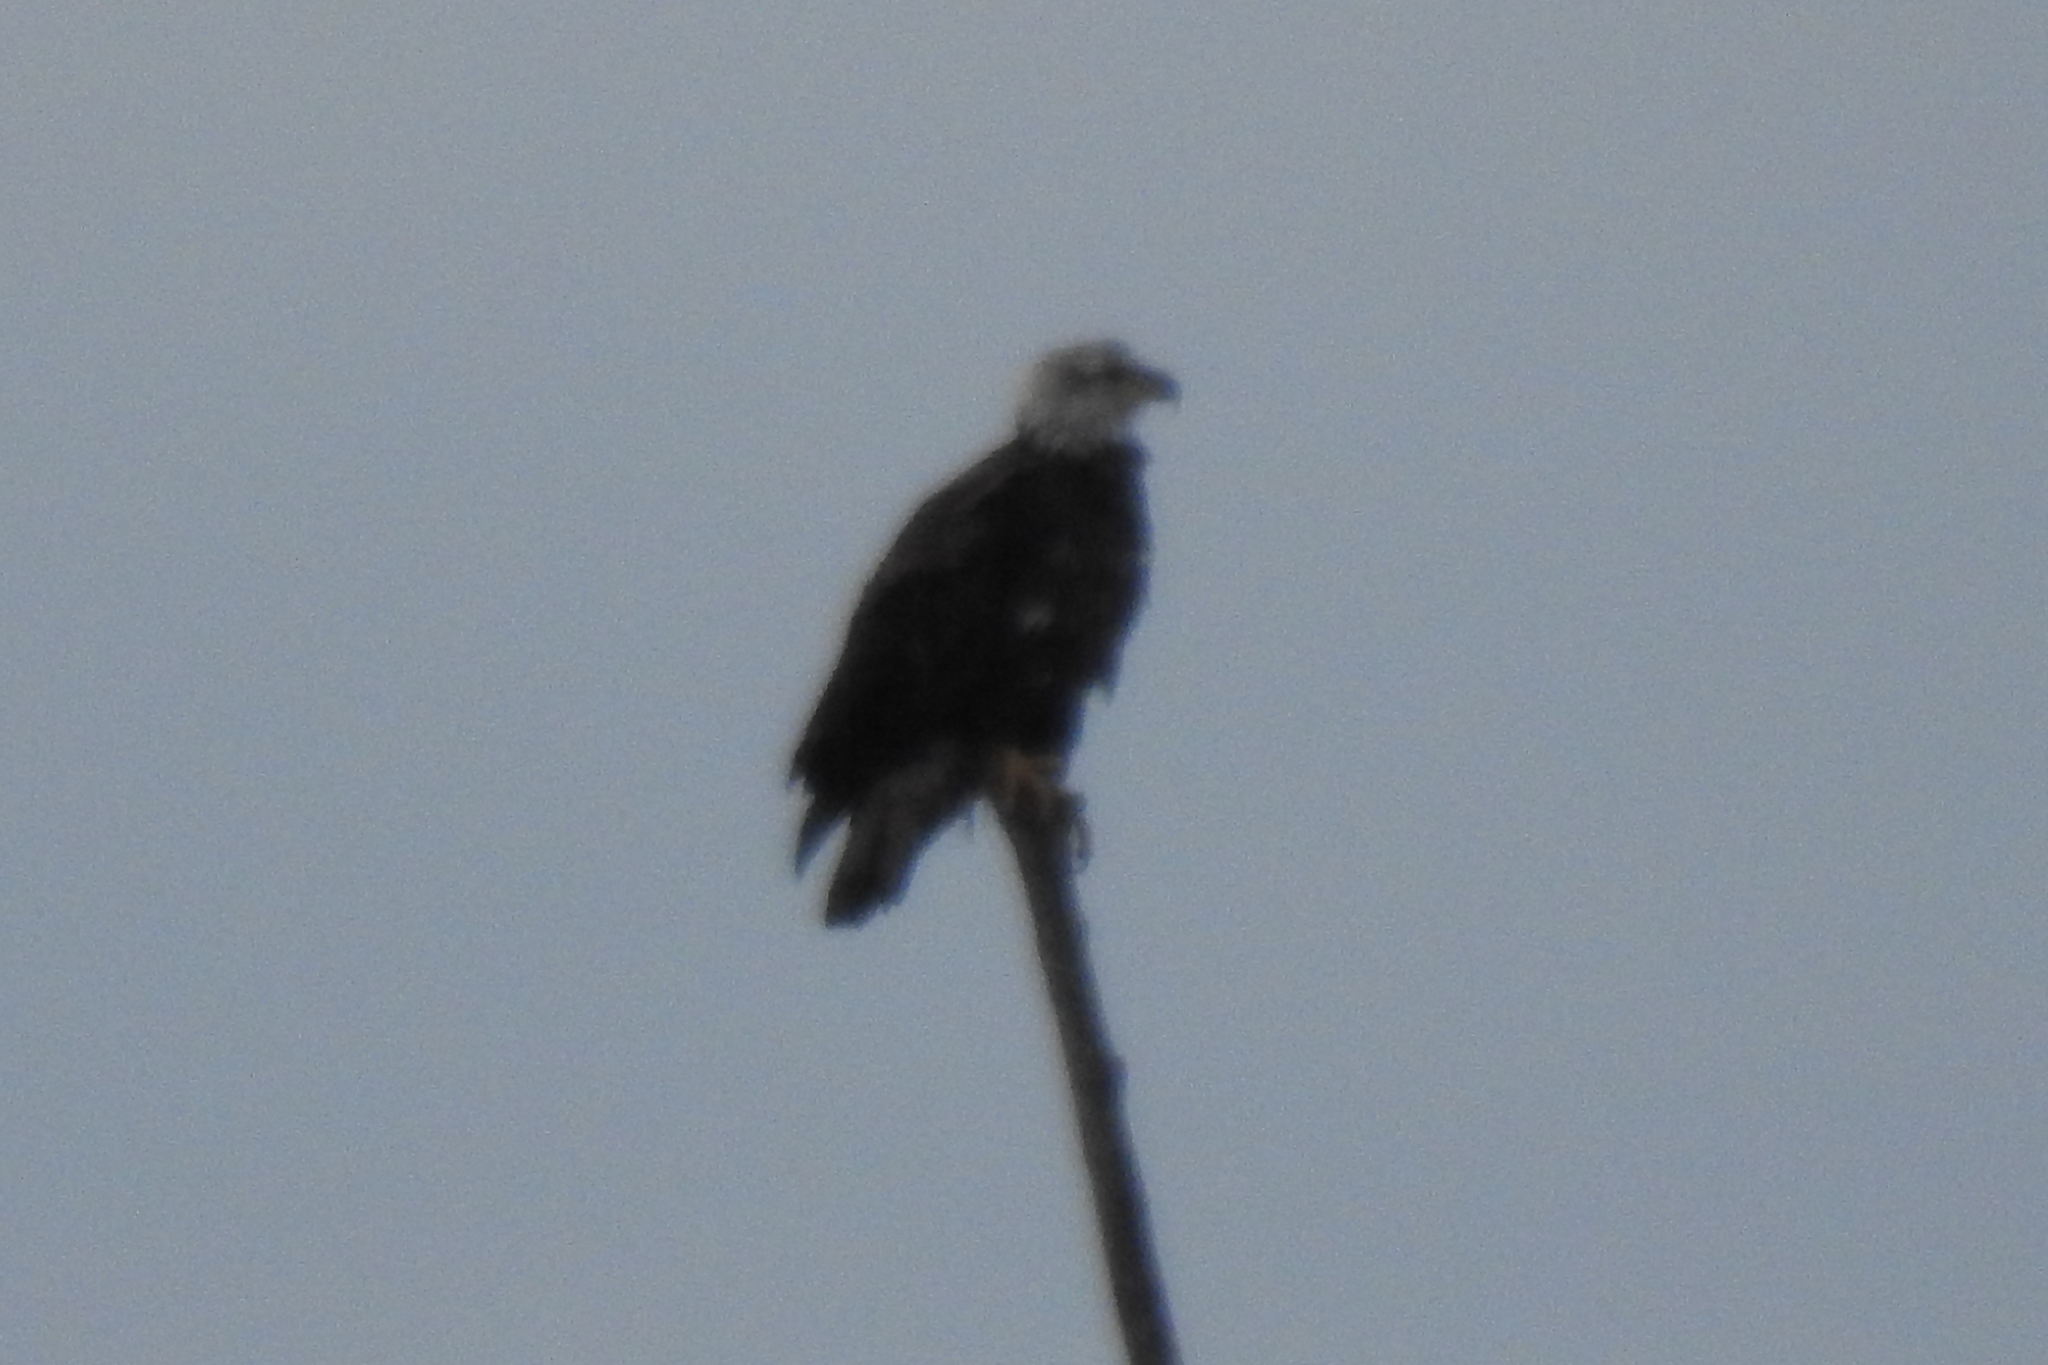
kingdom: Animalia
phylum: Chordata
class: Aves
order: Accipitriformes
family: Accipitridae
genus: Haliaeetus
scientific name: Haliaeetus leucocephalus
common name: Bald eagle
